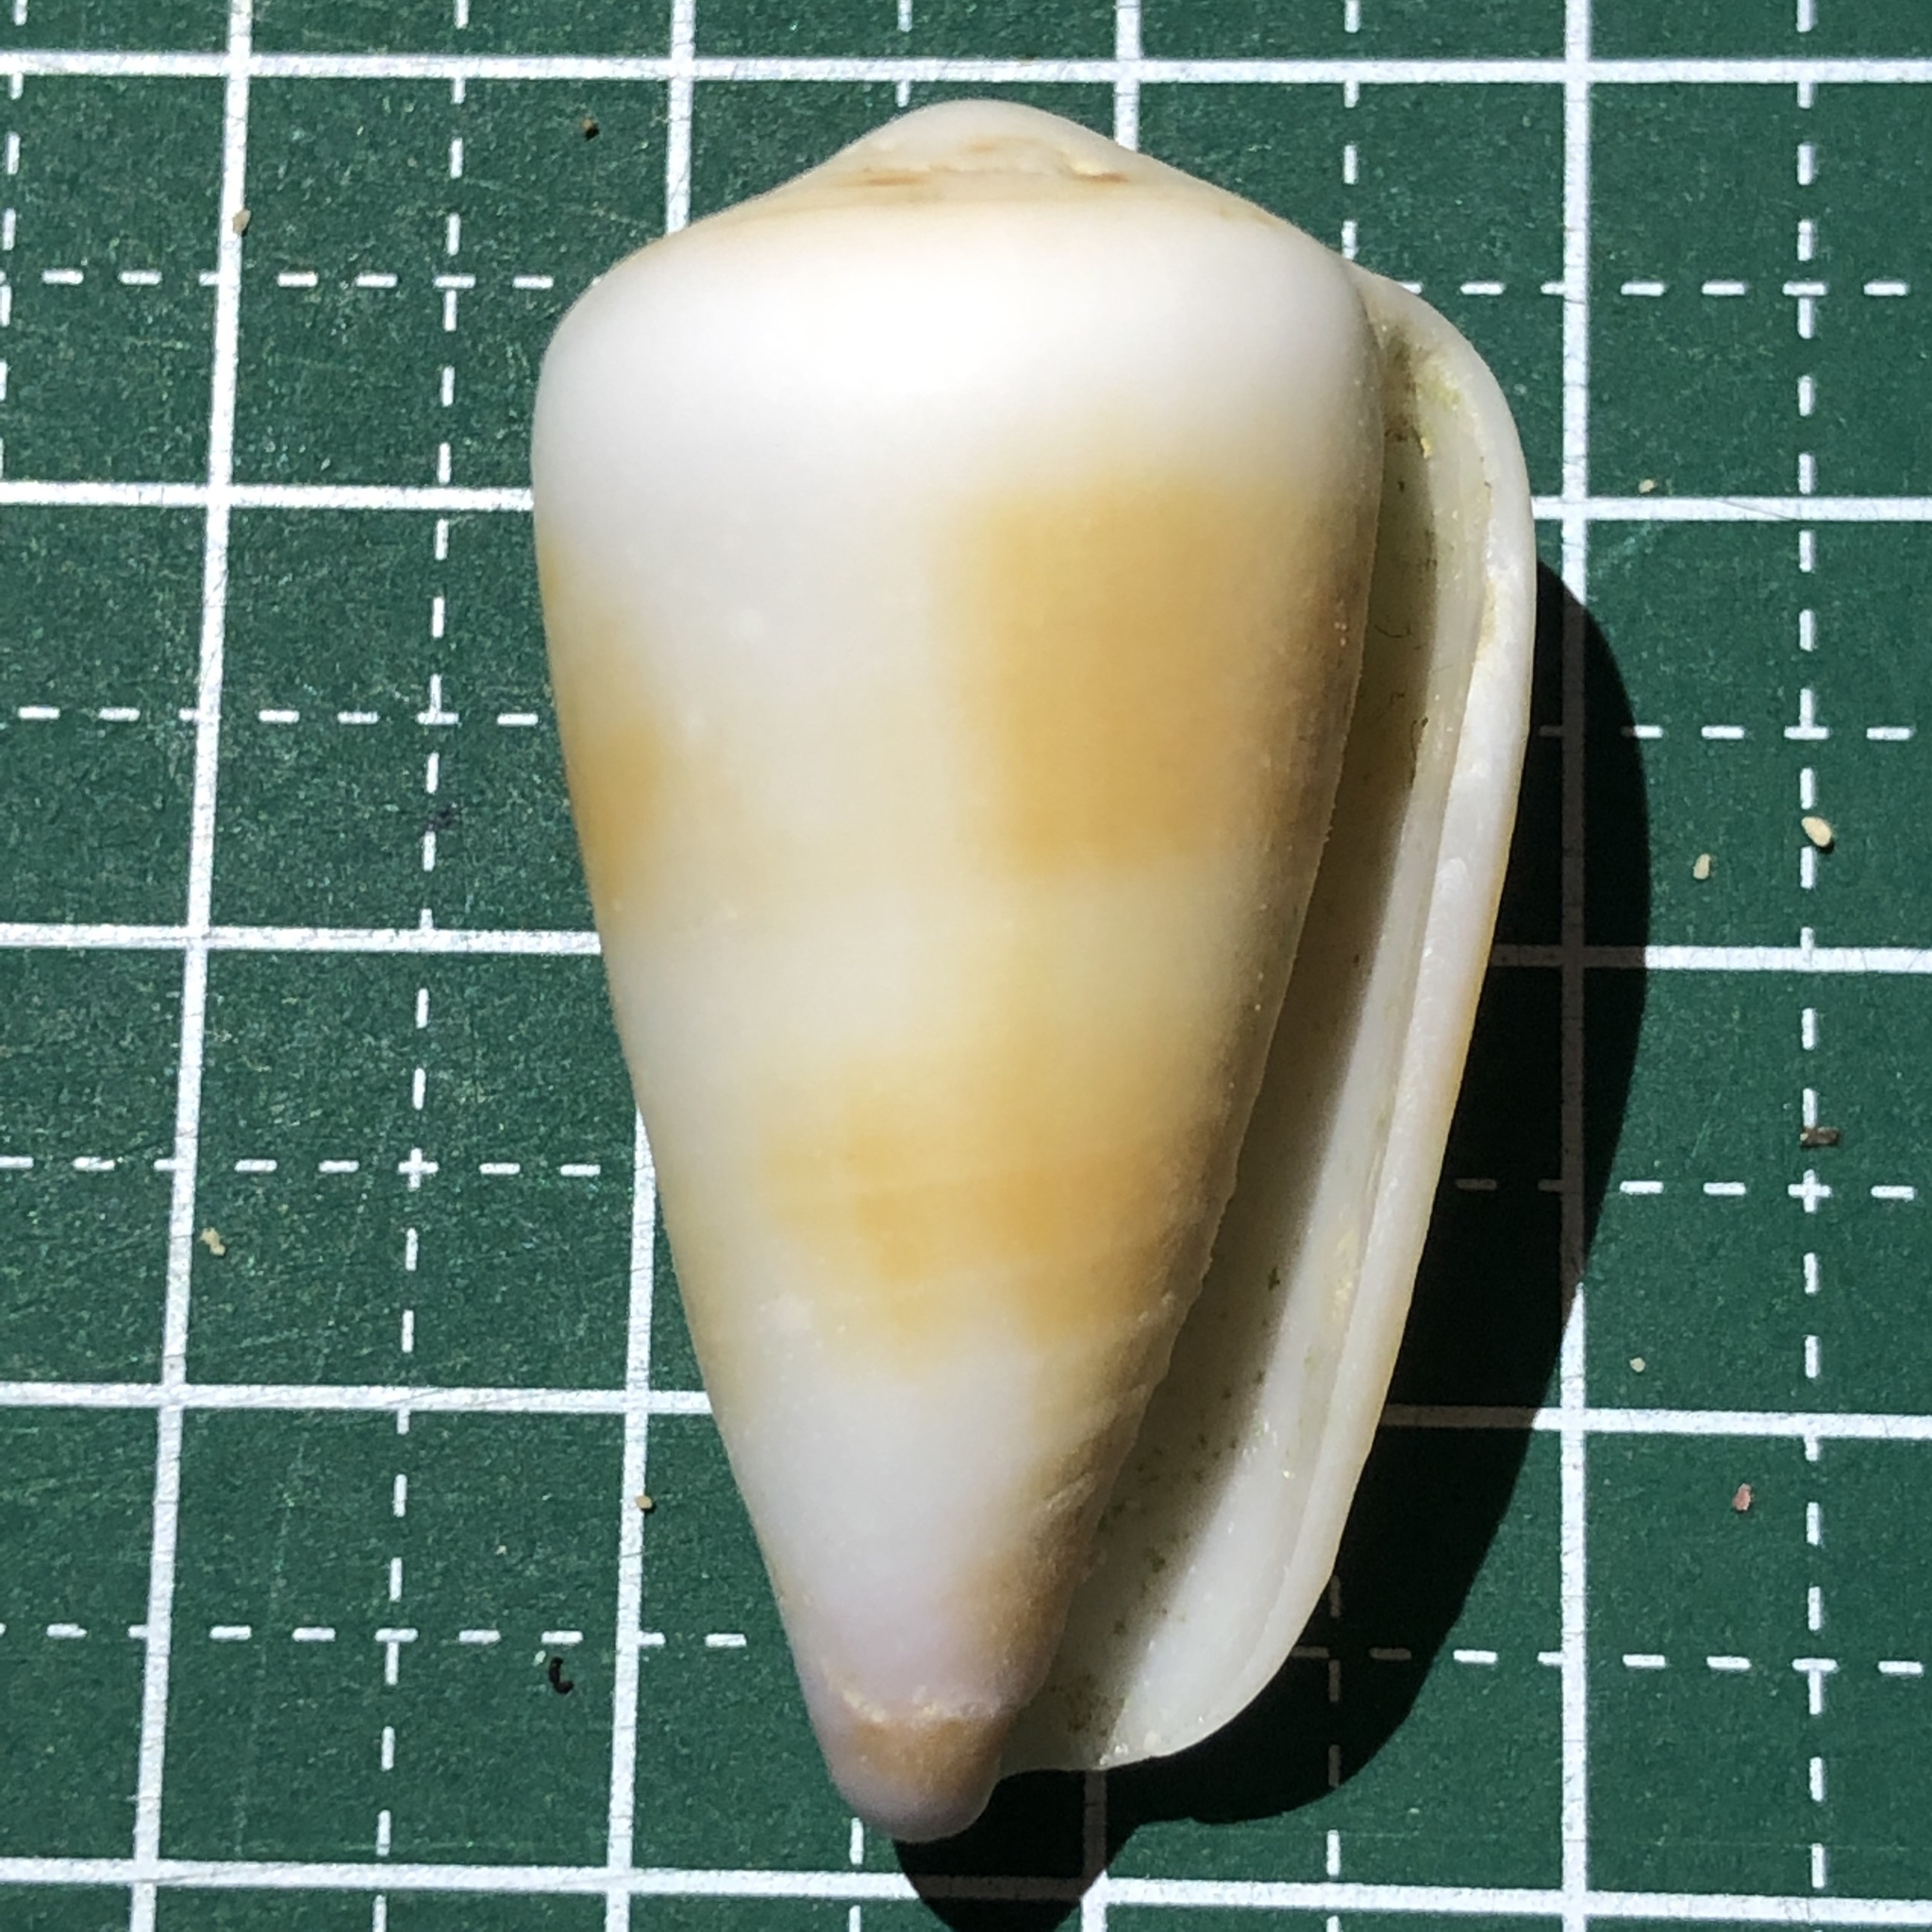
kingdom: Animalia
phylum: Mollusca
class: Gastropoda
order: Neogastropoda
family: Conidae
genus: Conus
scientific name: Conus planorbis
